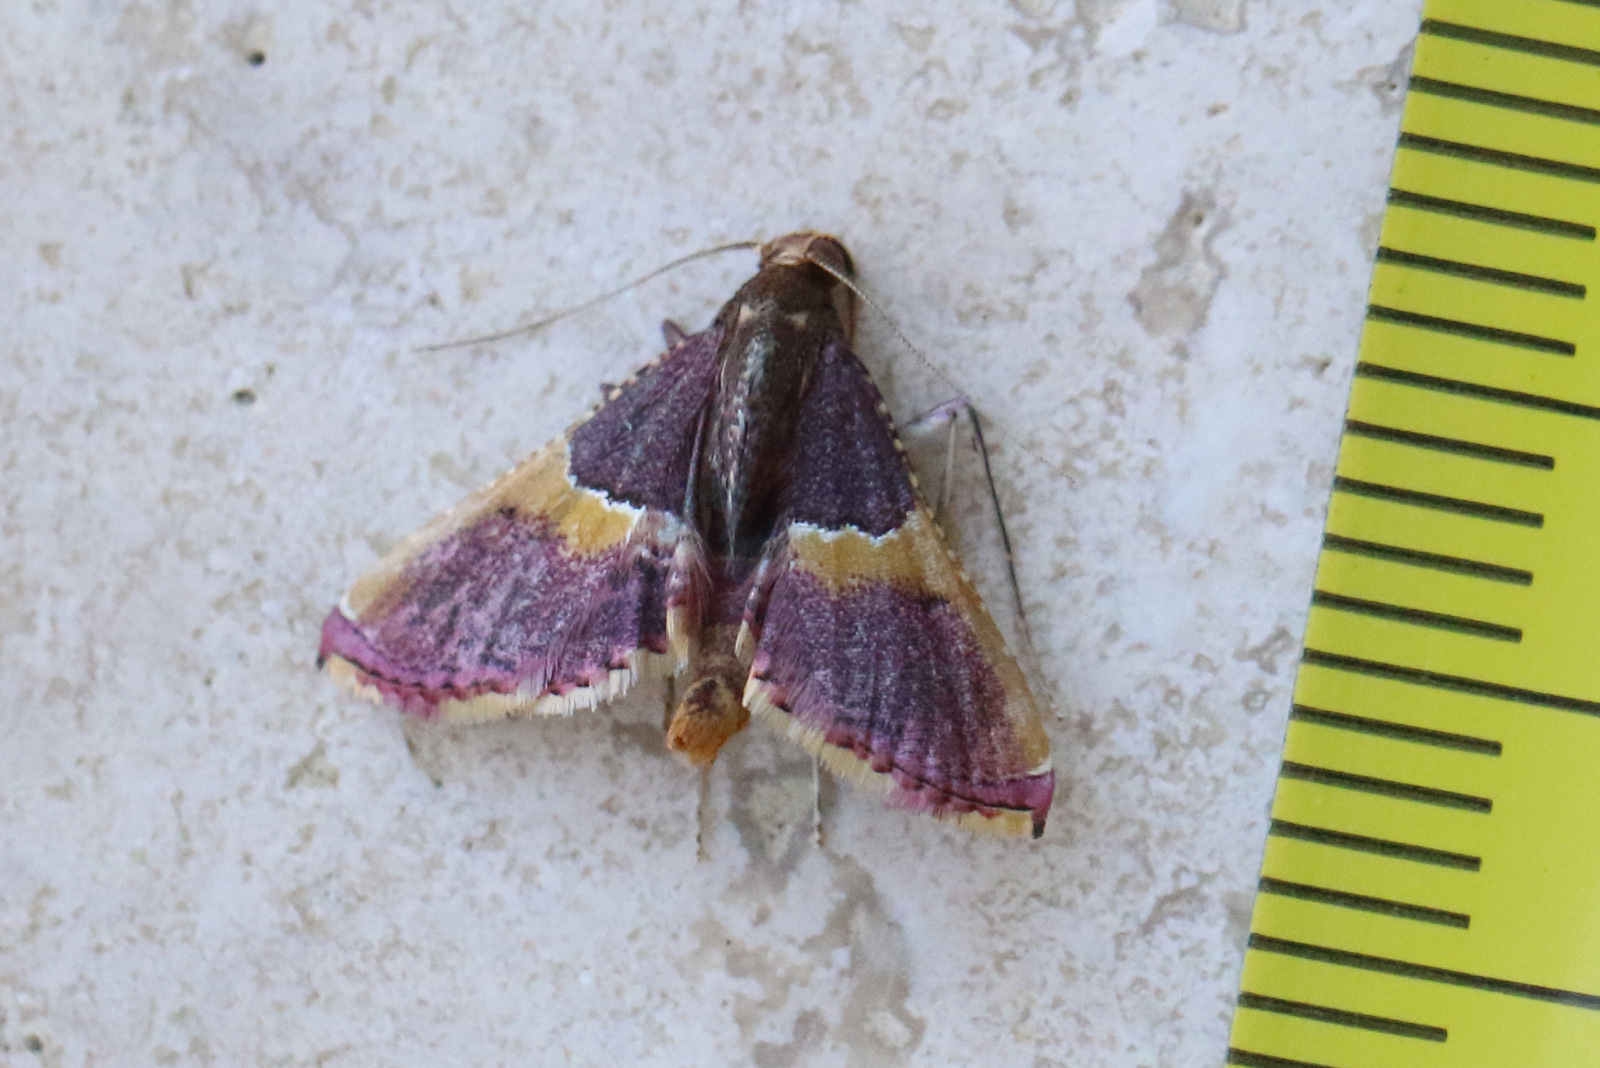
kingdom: Animalia
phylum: Arthropoda
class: Insecta
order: Lepidoptera
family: Pyralidae
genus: Endotricha
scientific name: Endotricha mesenterialis
